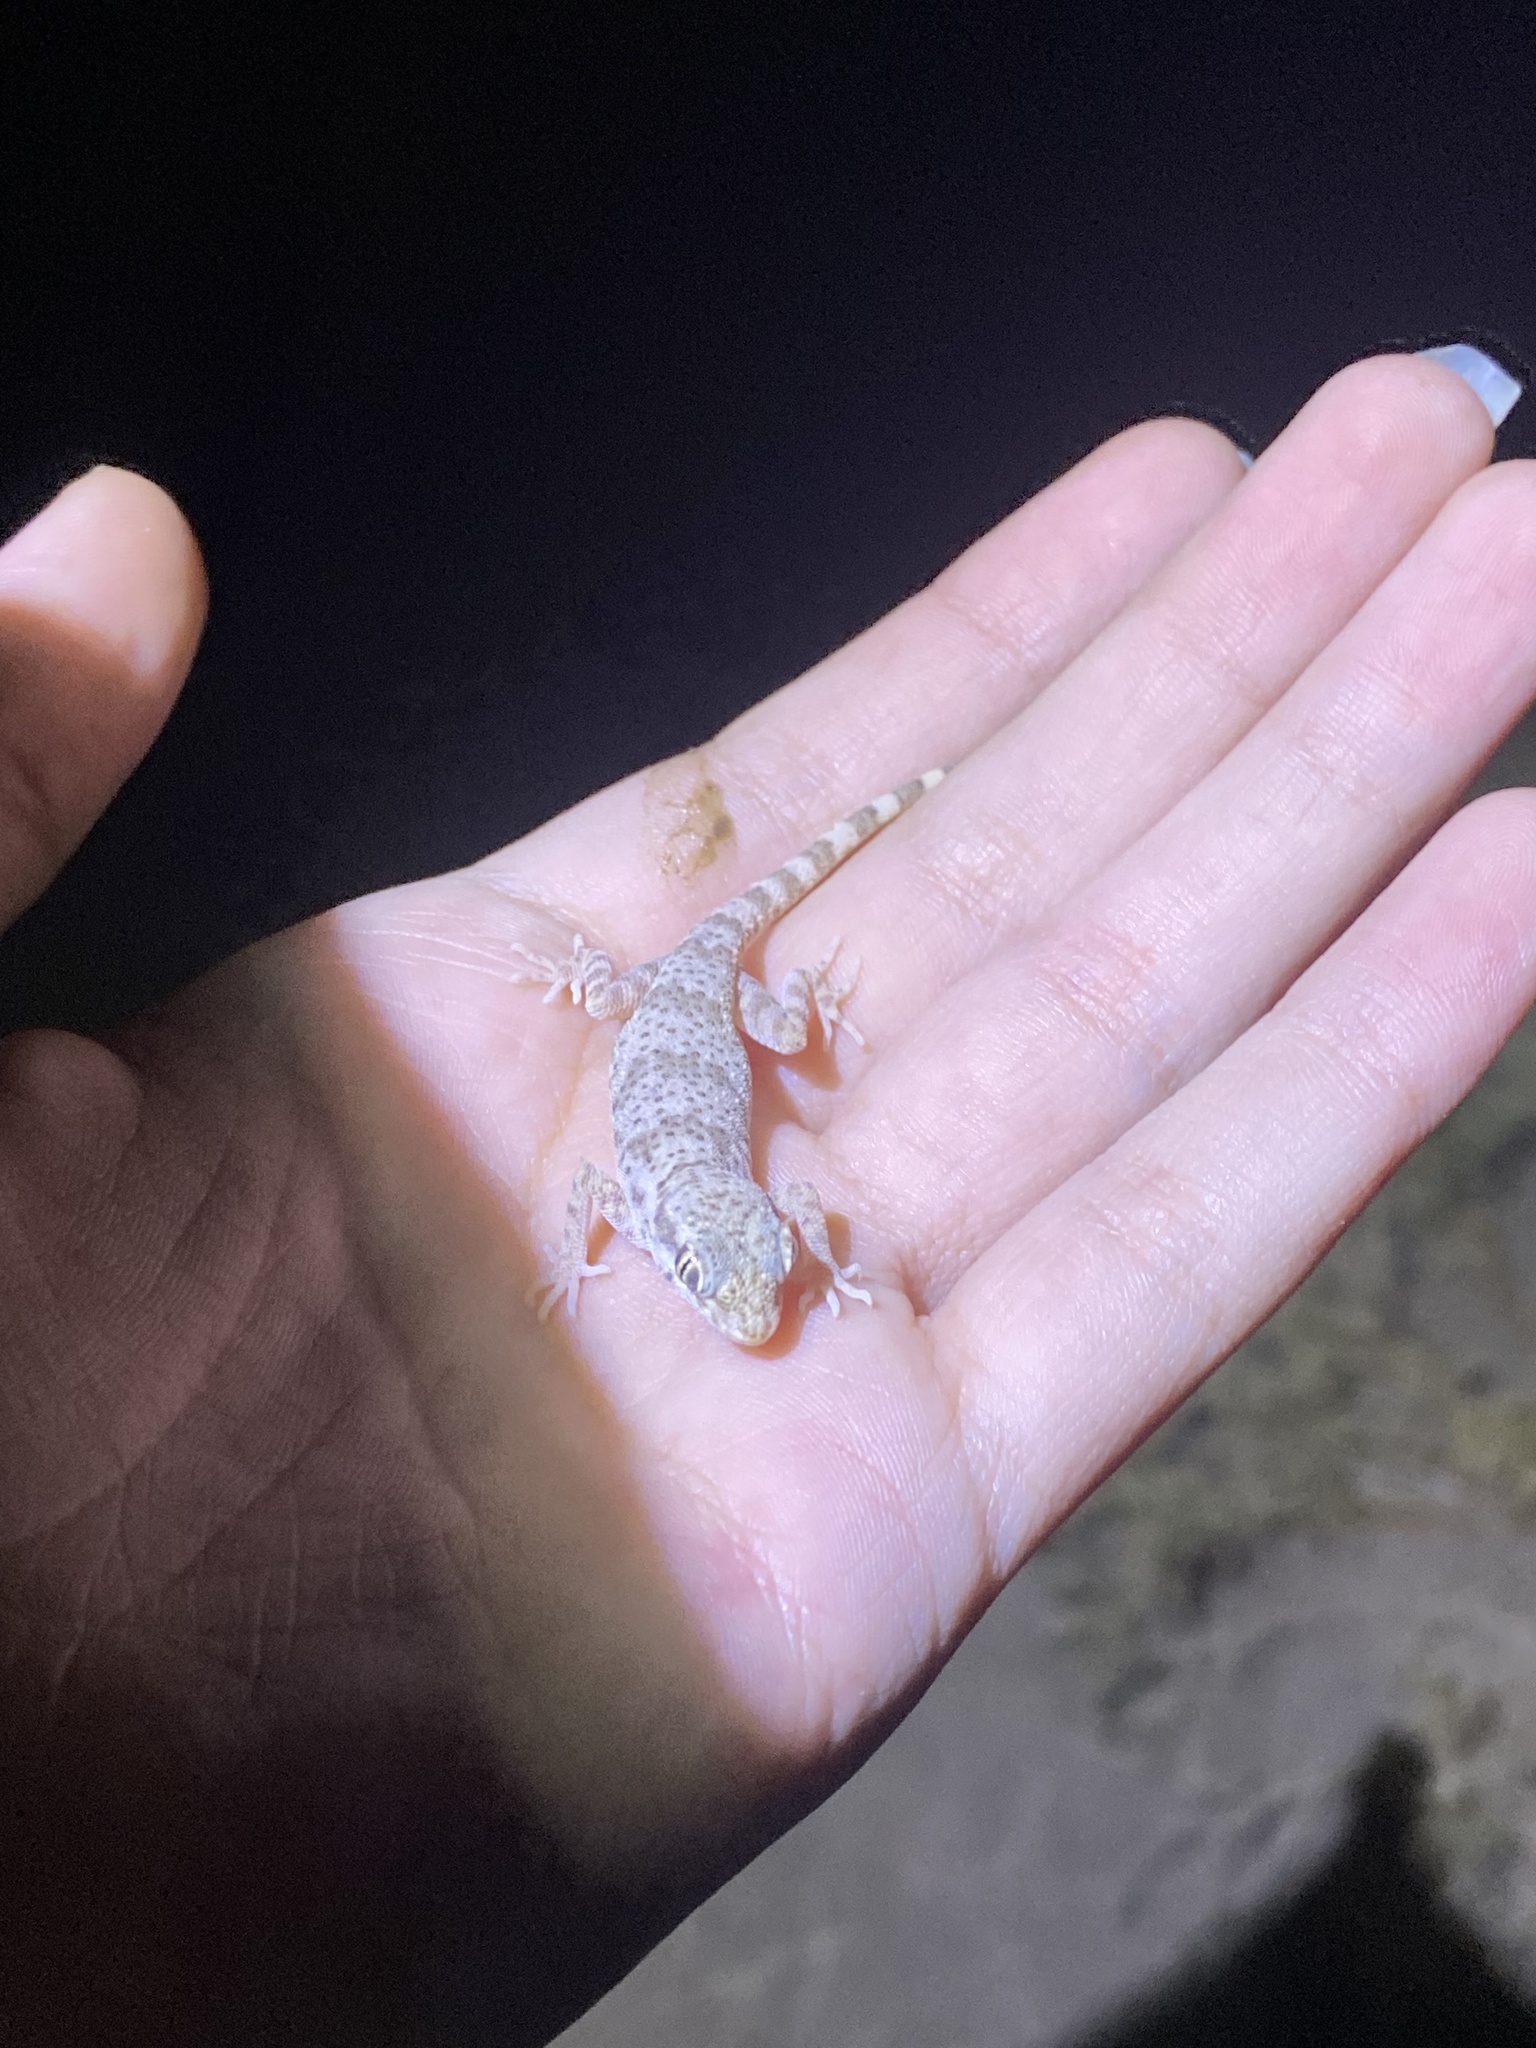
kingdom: Animalia
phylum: Chordata
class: Squamata
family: Gekkonidae
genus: Bunopus
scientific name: Bunopus crassicauda
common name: Thick-tailed tuberculated gecko
